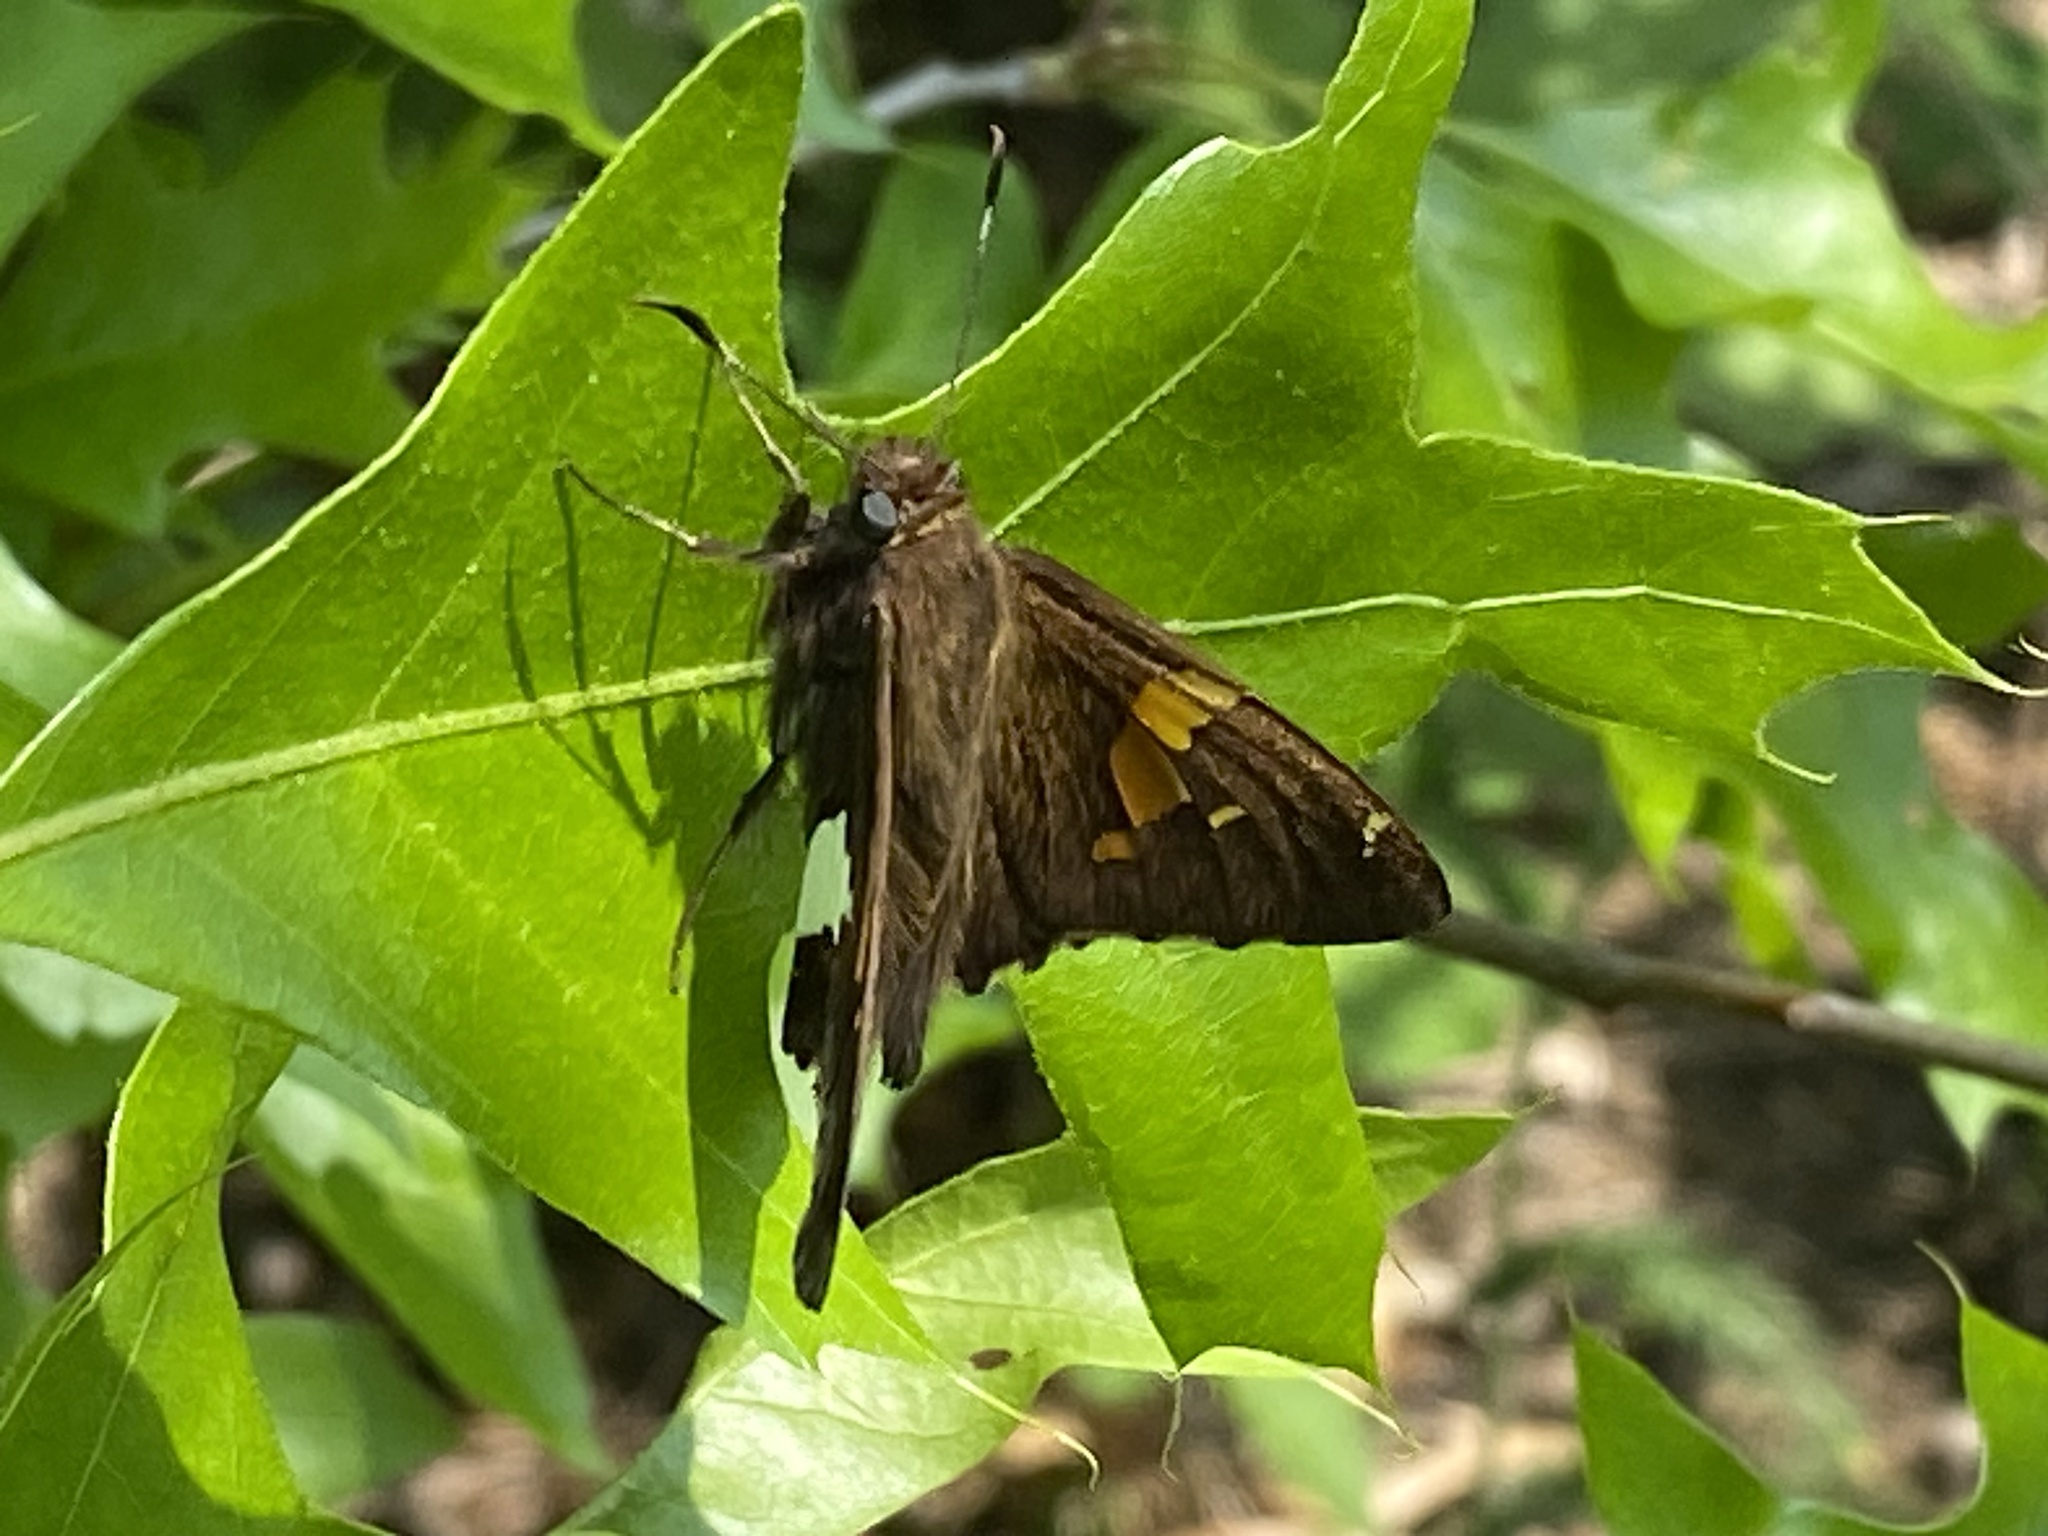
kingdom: Animalia
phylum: Arthropoda
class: Insecta
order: Lepidoptera
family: Hesperiidae
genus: Epargyreus
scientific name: Epargyreus clarus
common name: Silver-spotted skipper
